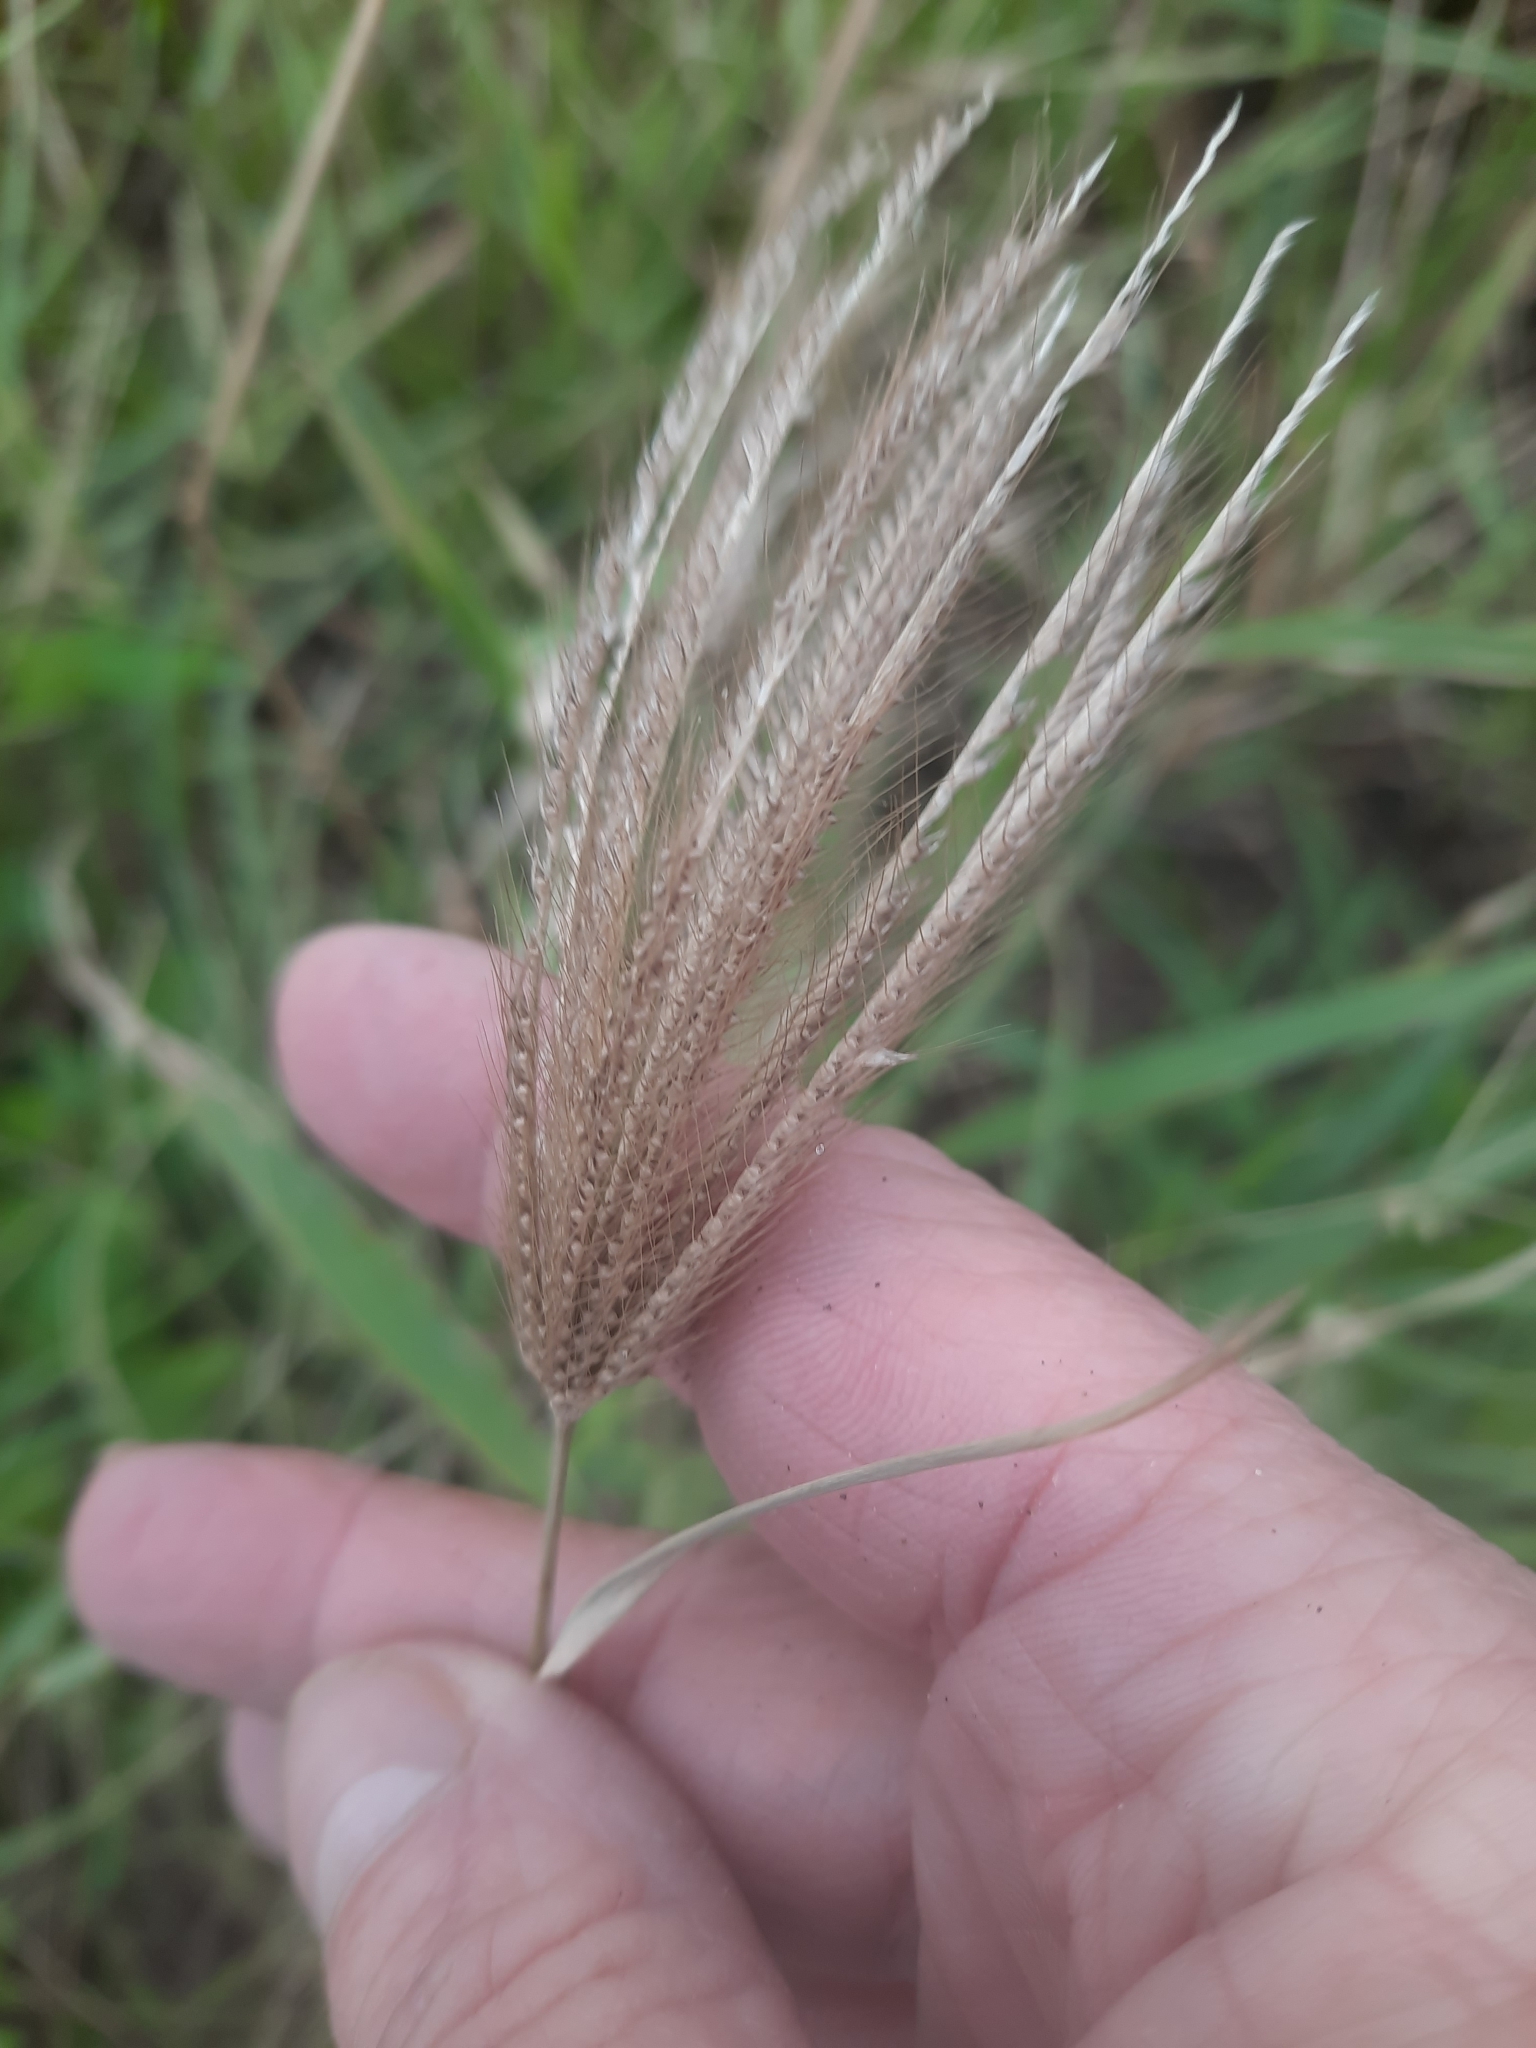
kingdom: Plantae
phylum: Tracheophyta
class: Liliopsida
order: Poales
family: Poaceae
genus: Chloris
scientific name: Chloris barbata
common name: Swollen fingergrass
